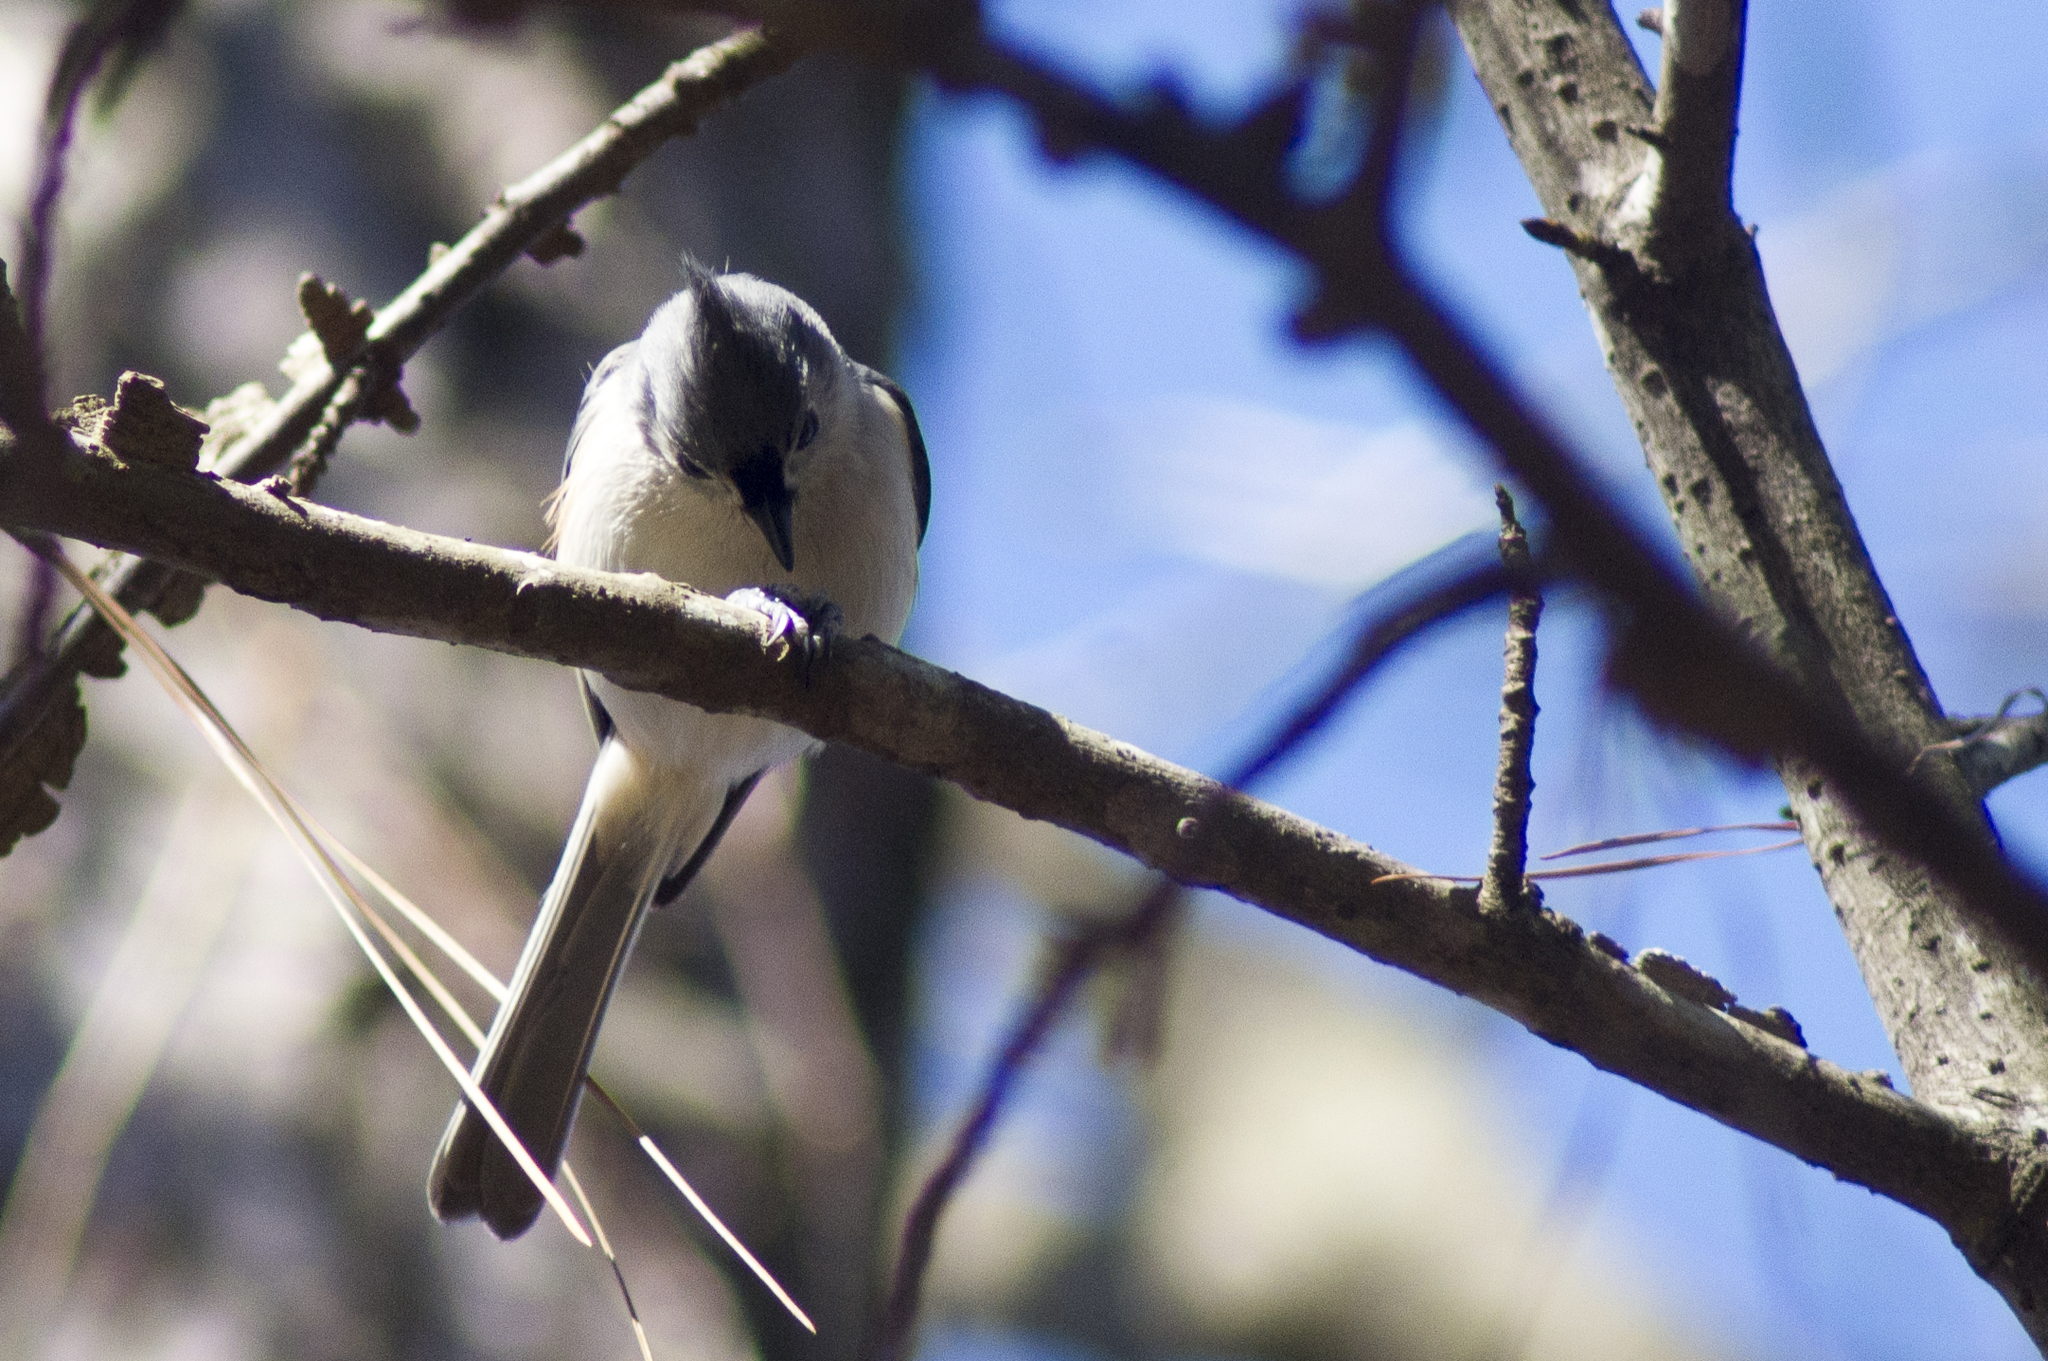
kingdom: Animalia
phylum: Chordata
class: Aves
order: Passeriformes
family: Paridae
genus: Baeolophus
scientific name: Baeolophus bicolor
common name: Tufted titmouse
